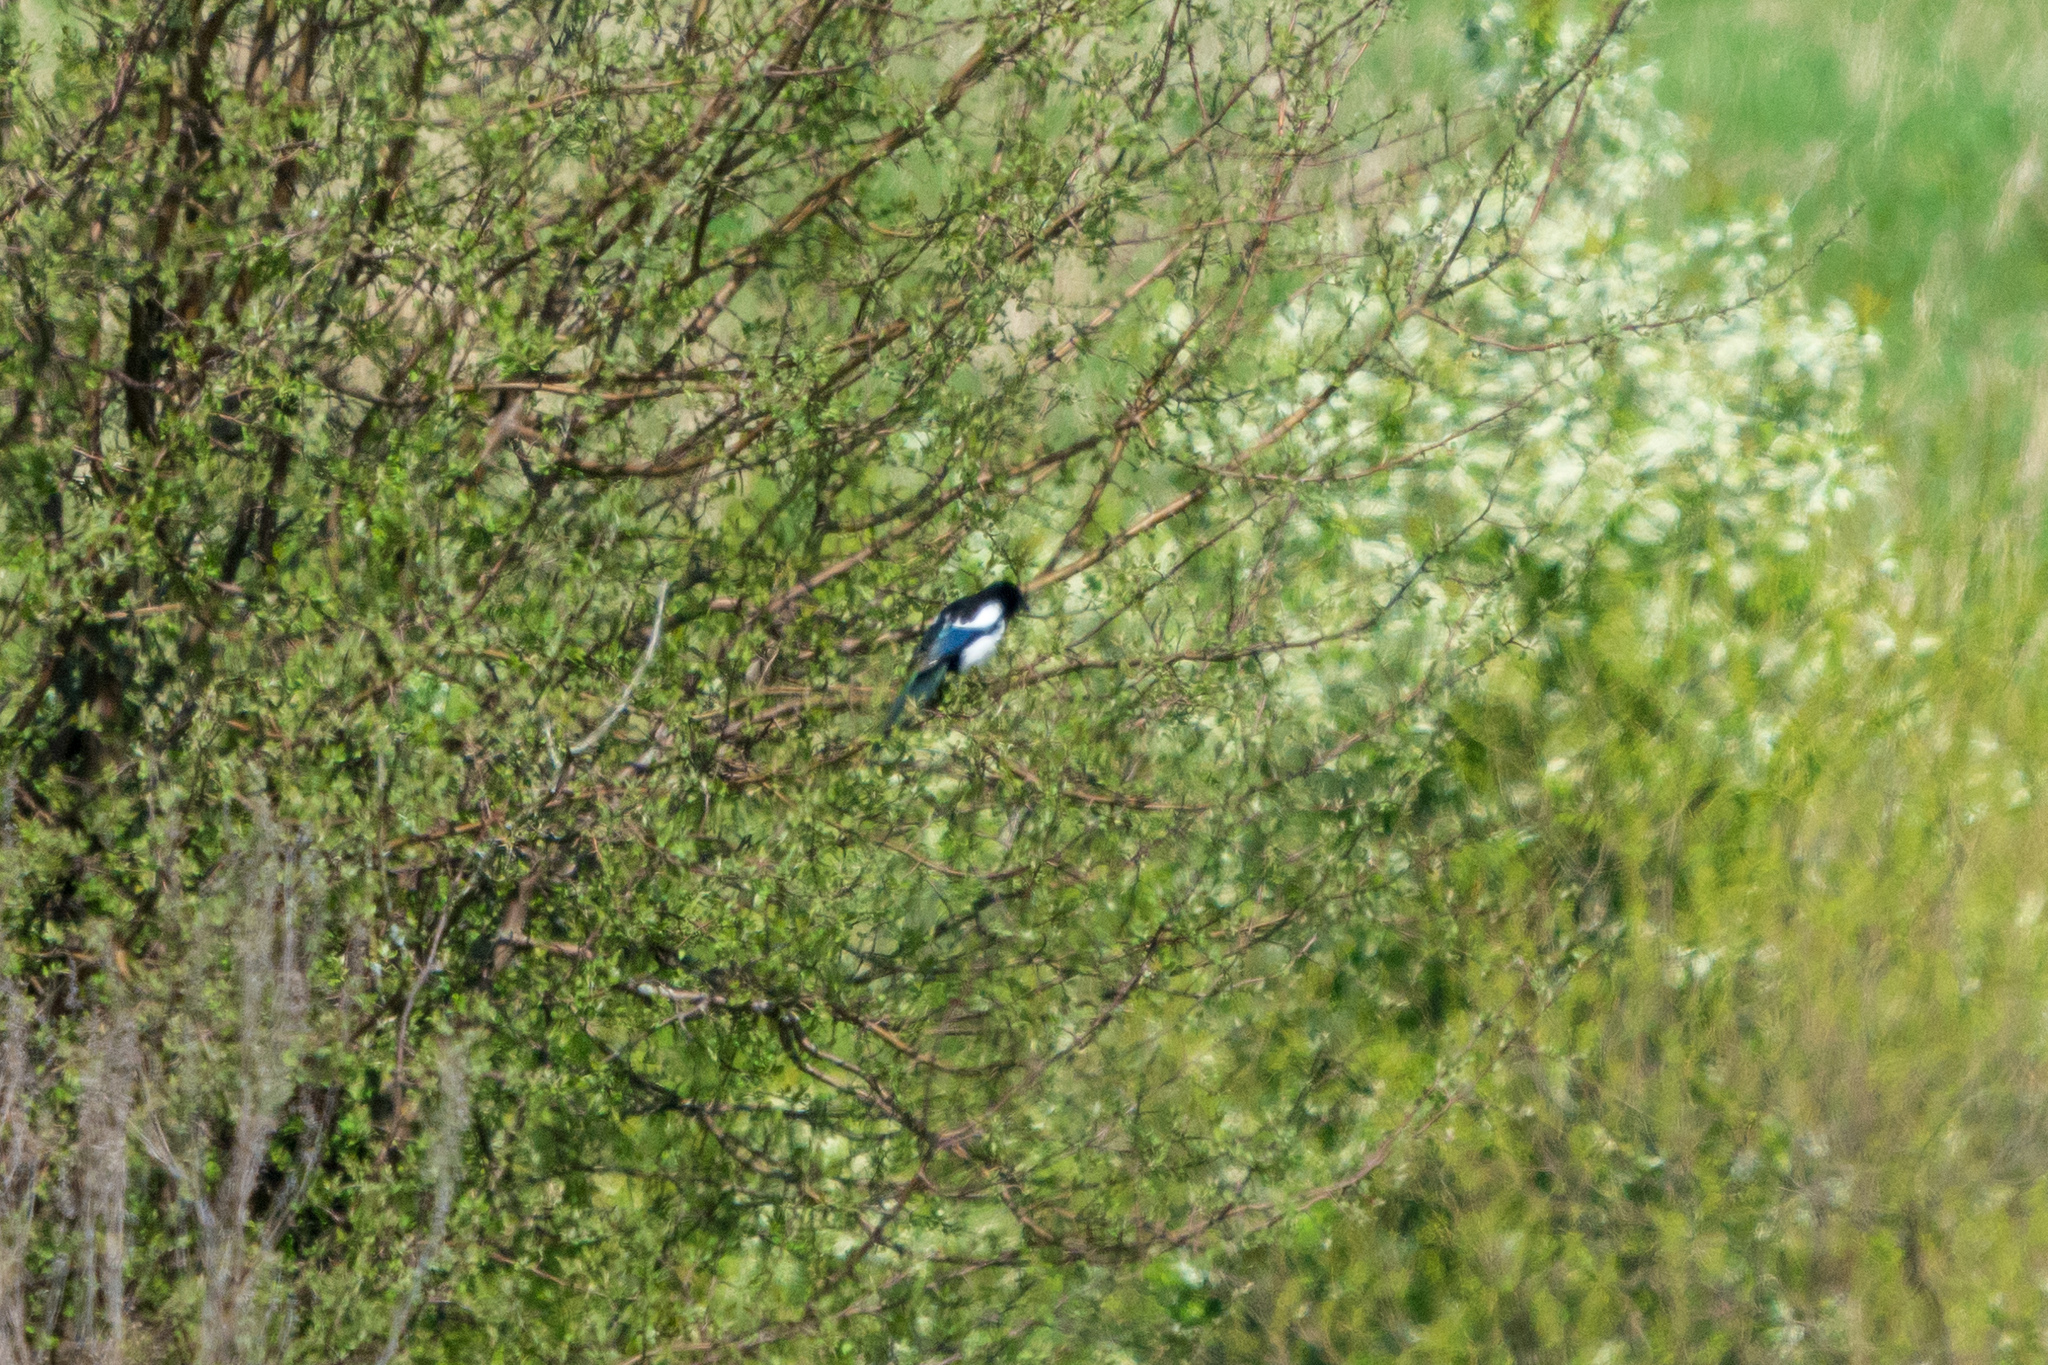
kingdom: Animalia
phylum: Chordata
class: Aves
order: Passeriformes
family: Corvidae
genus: Pica
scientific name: Pica pica
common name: Eurasian magpie
